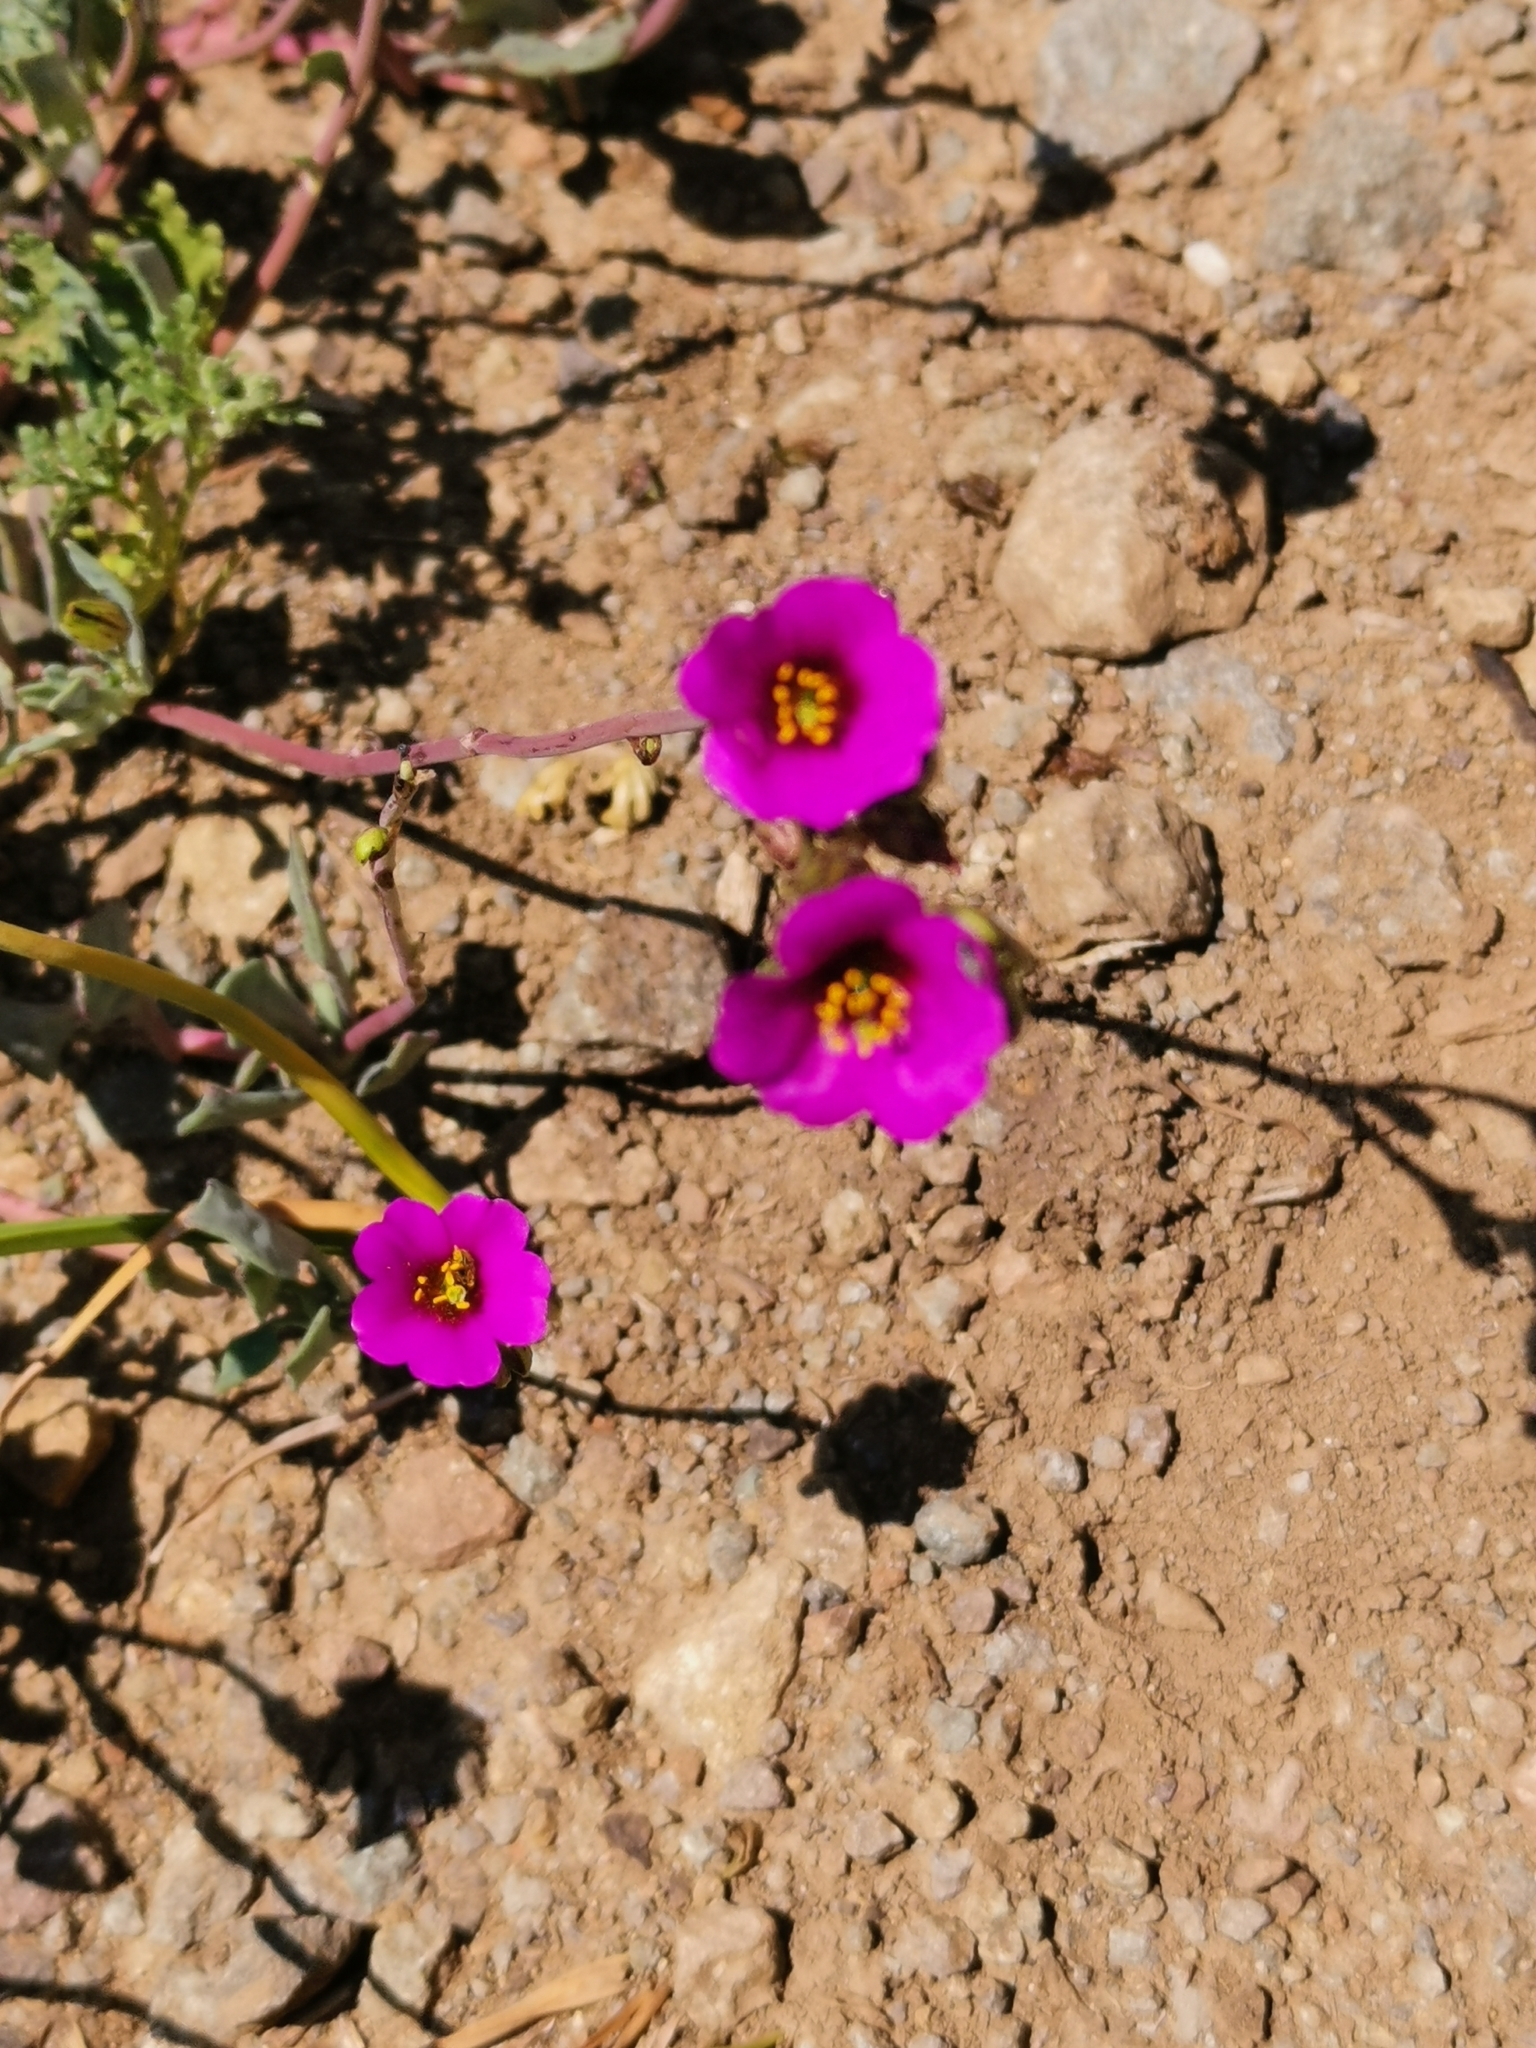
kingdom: Plantae
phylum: Tracheophyta
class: Magnoliopsida
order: Caryophyllales
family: Montiaceae
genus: Cistanthe
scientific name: Cistanthe arenaria
